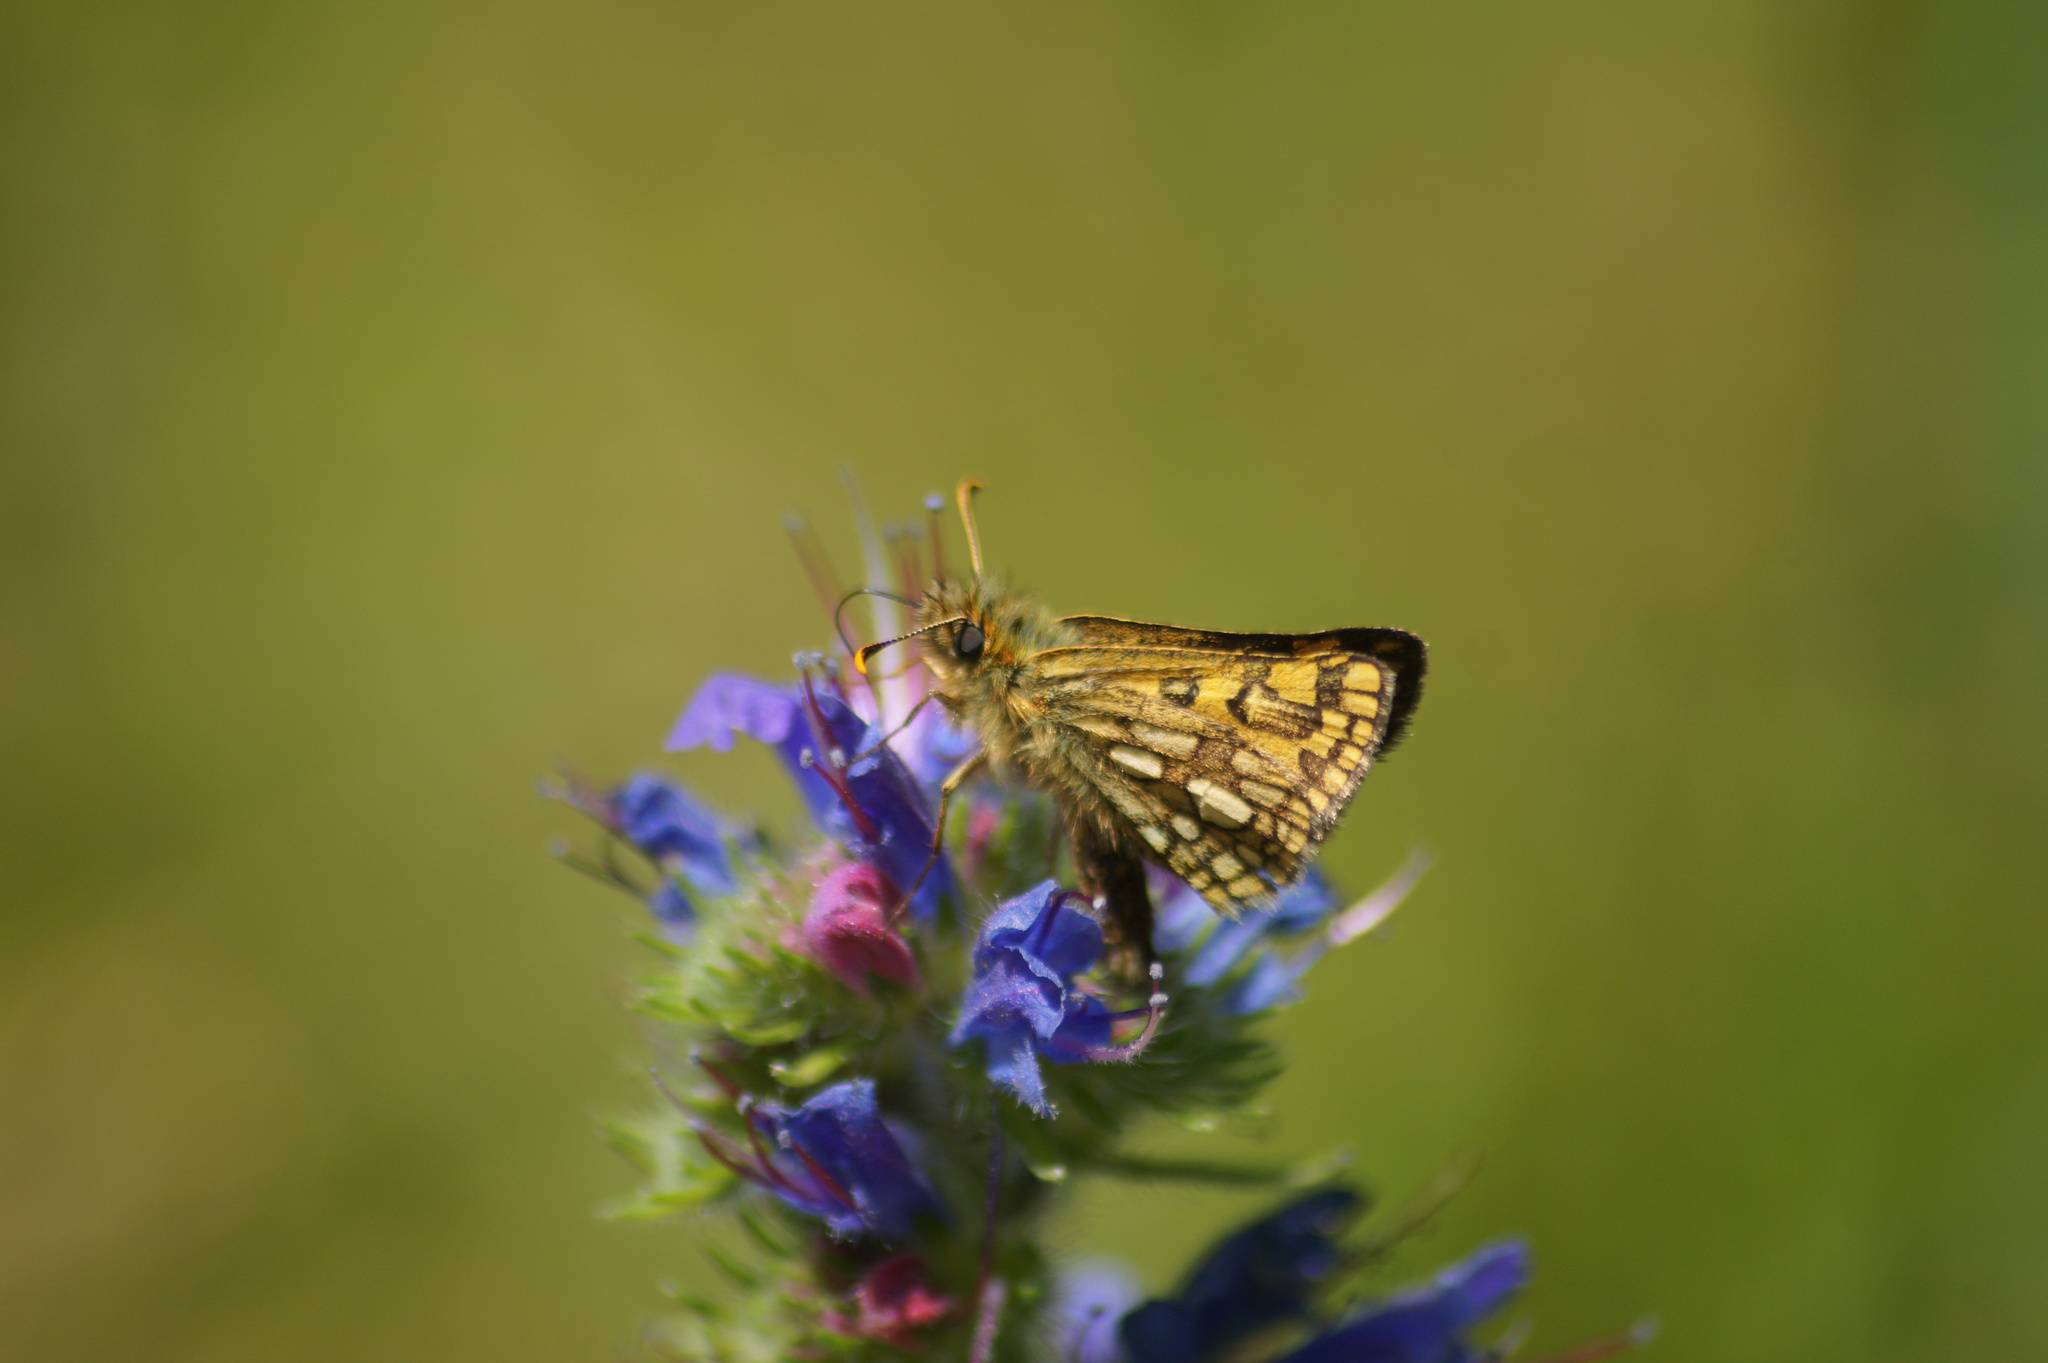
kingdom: Animalia
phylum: Arthropoda
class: Insecta
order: Lepidoptera
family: Hesperiidae
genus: Carterocephalus
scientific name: Carterocephalus palaemon
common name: Chequered skipper
